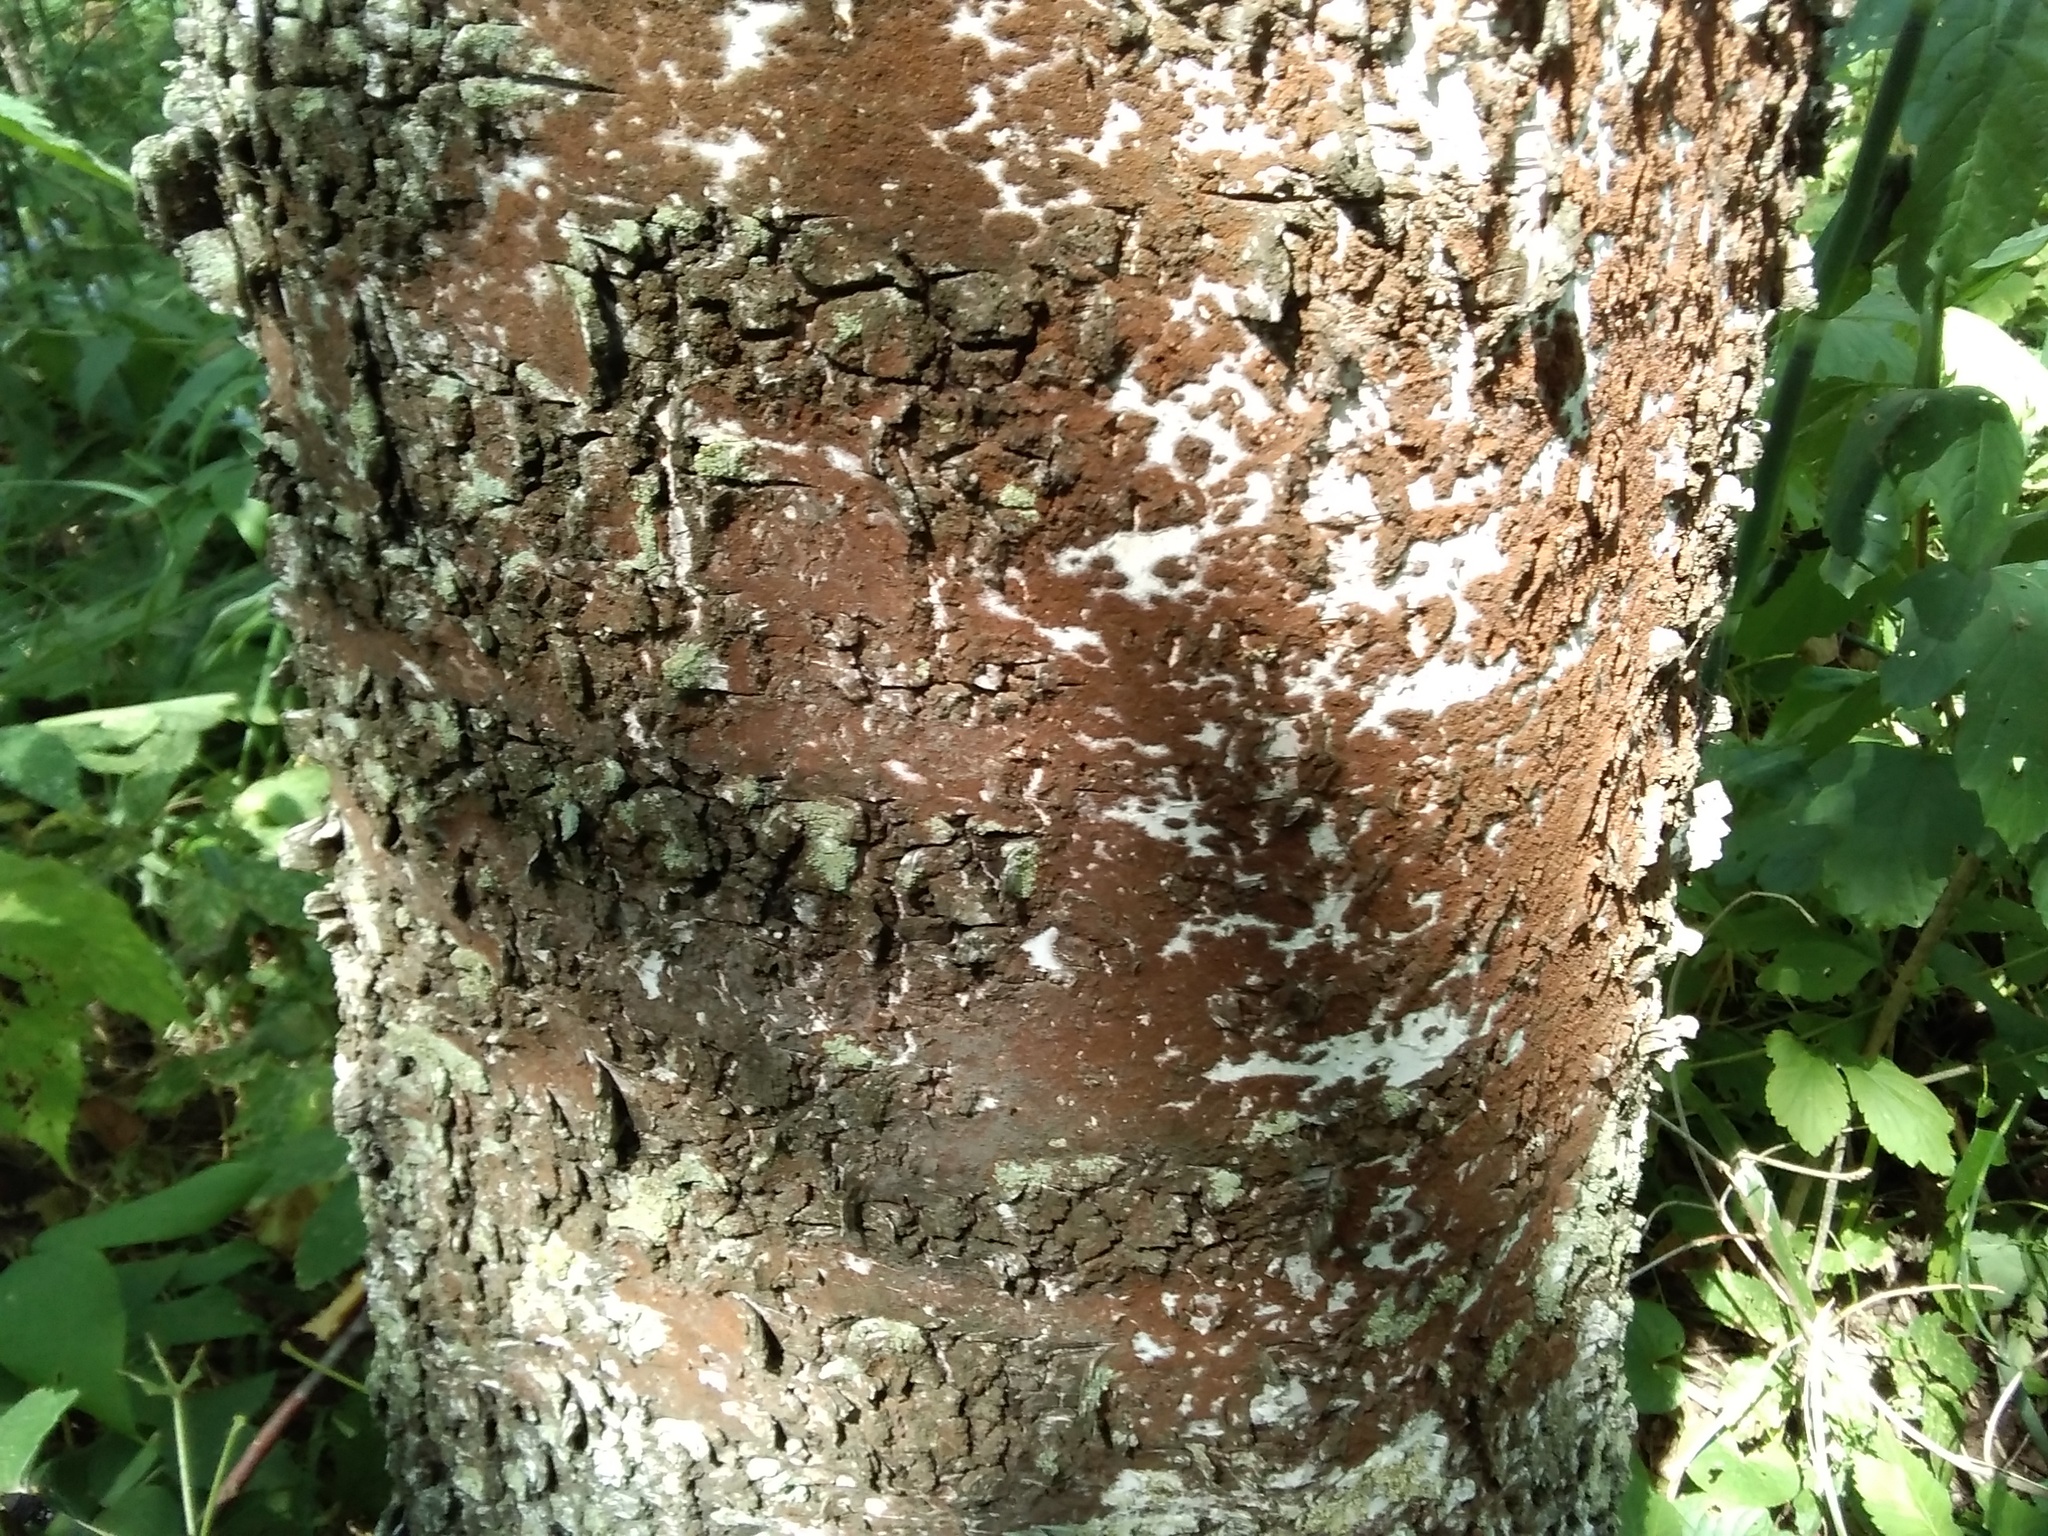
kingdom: Plantae
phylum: Chlorophyta
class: Ulvophyceae
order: Trentepohliales
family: Trentepohliaceae
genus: Trentepohlia
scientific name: Trentepohlia
